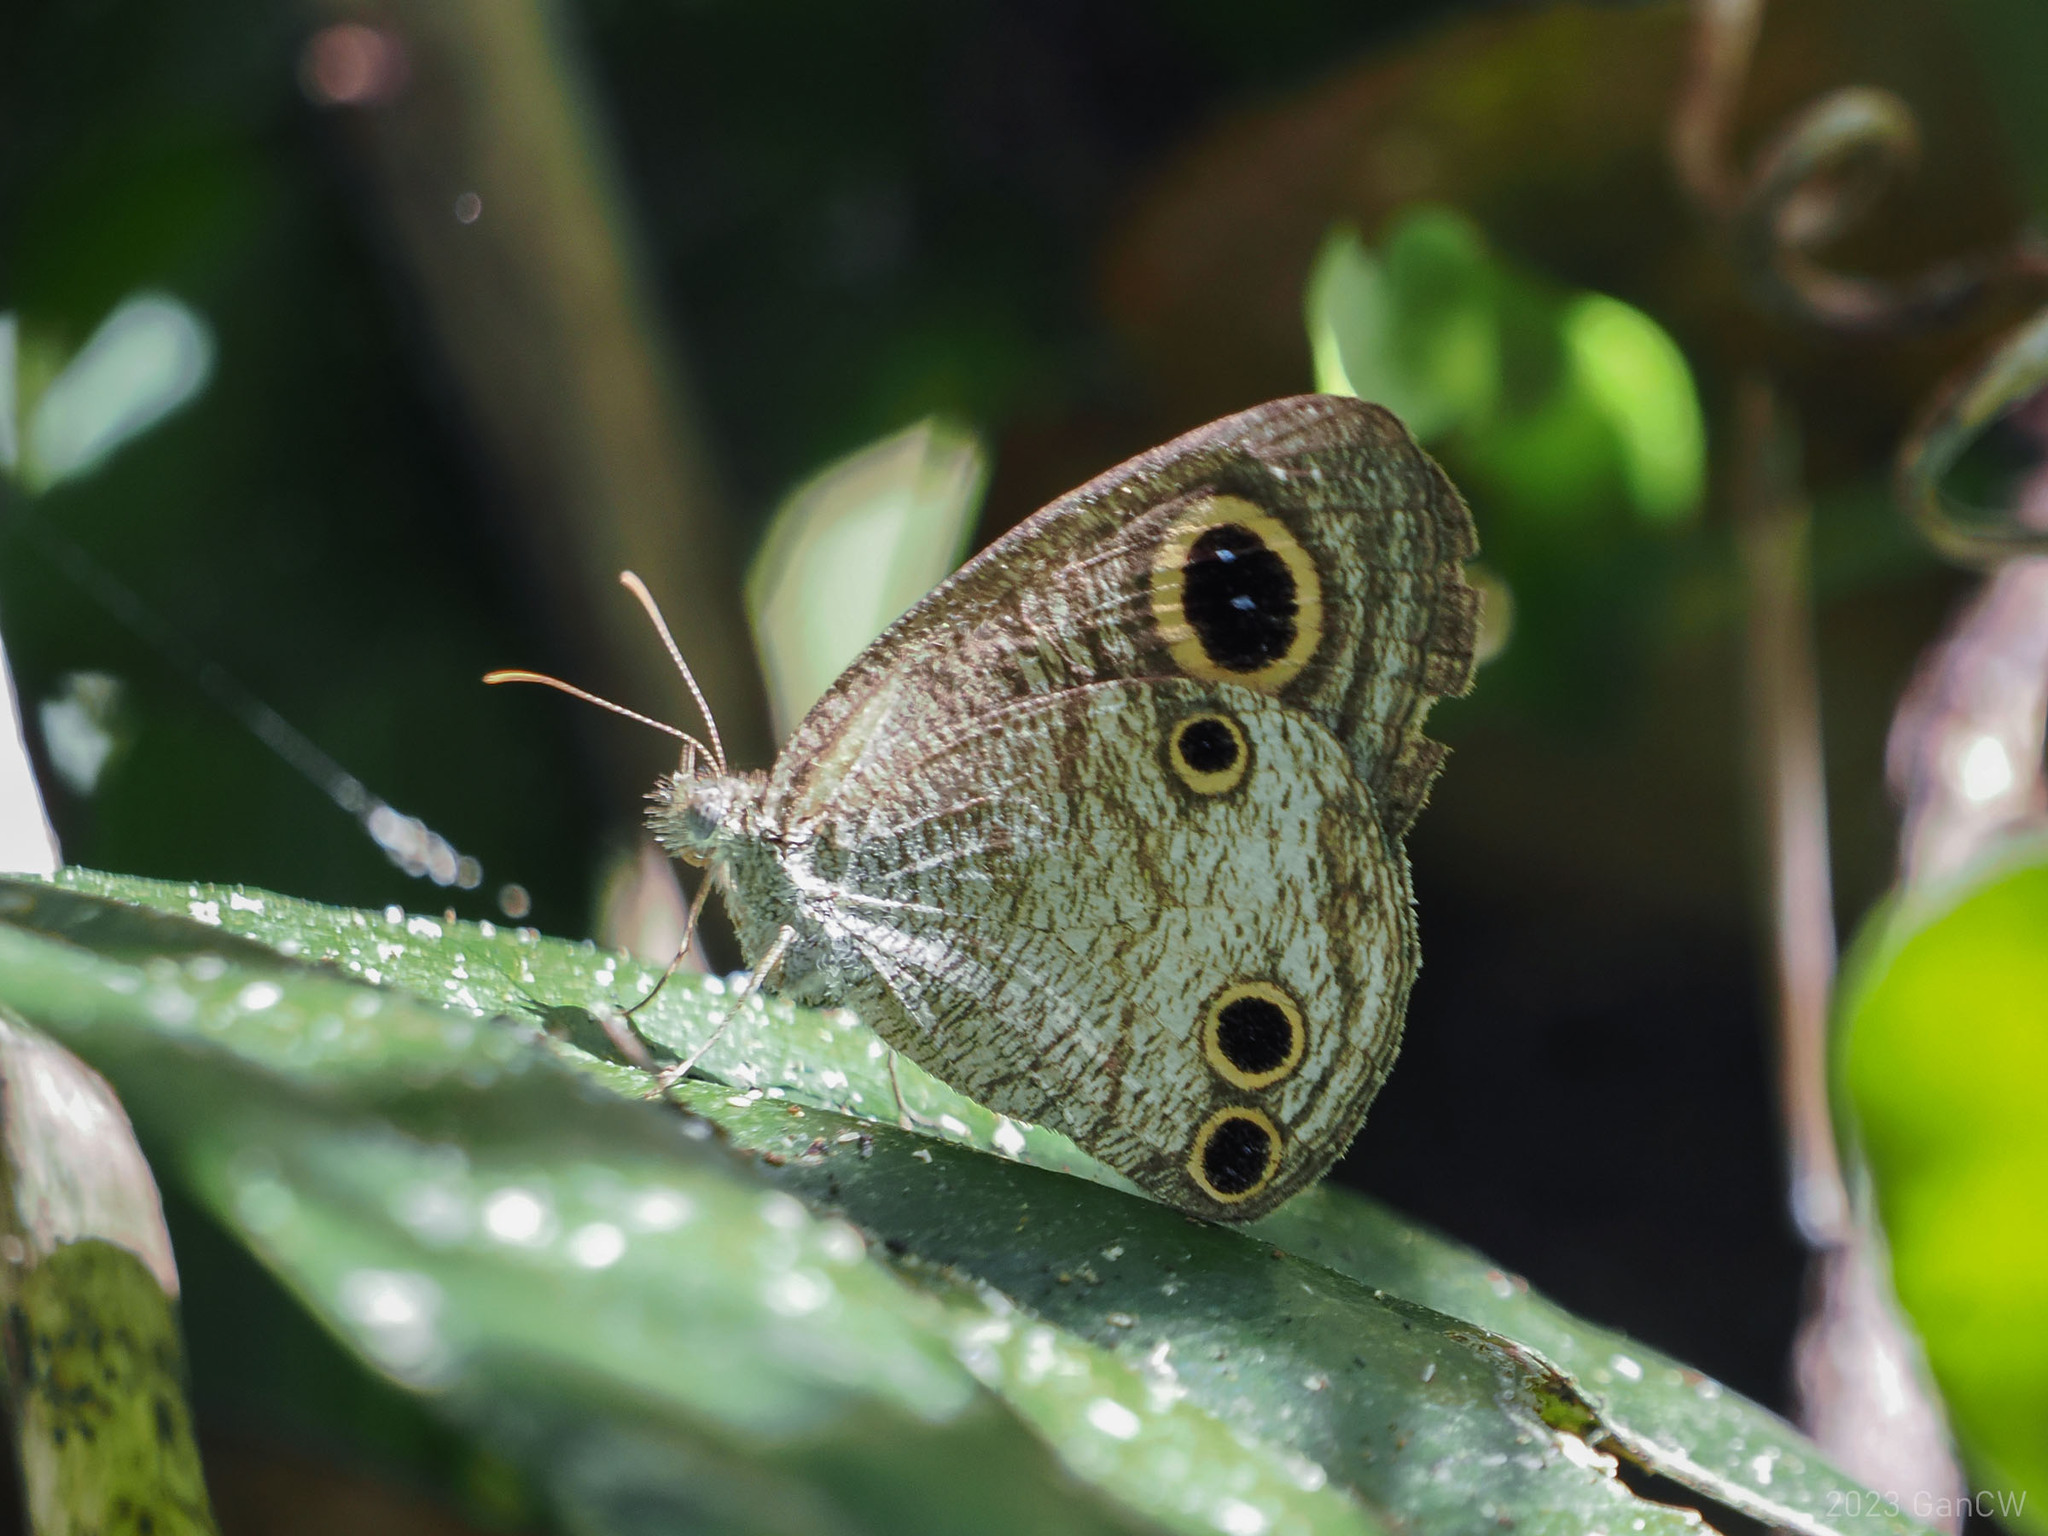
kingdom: Animalia
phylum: Arthropoda
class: Insecta
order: Lepidoptera
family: Nymphalidae
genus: Ypthima
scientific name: Ypthima pandocus
